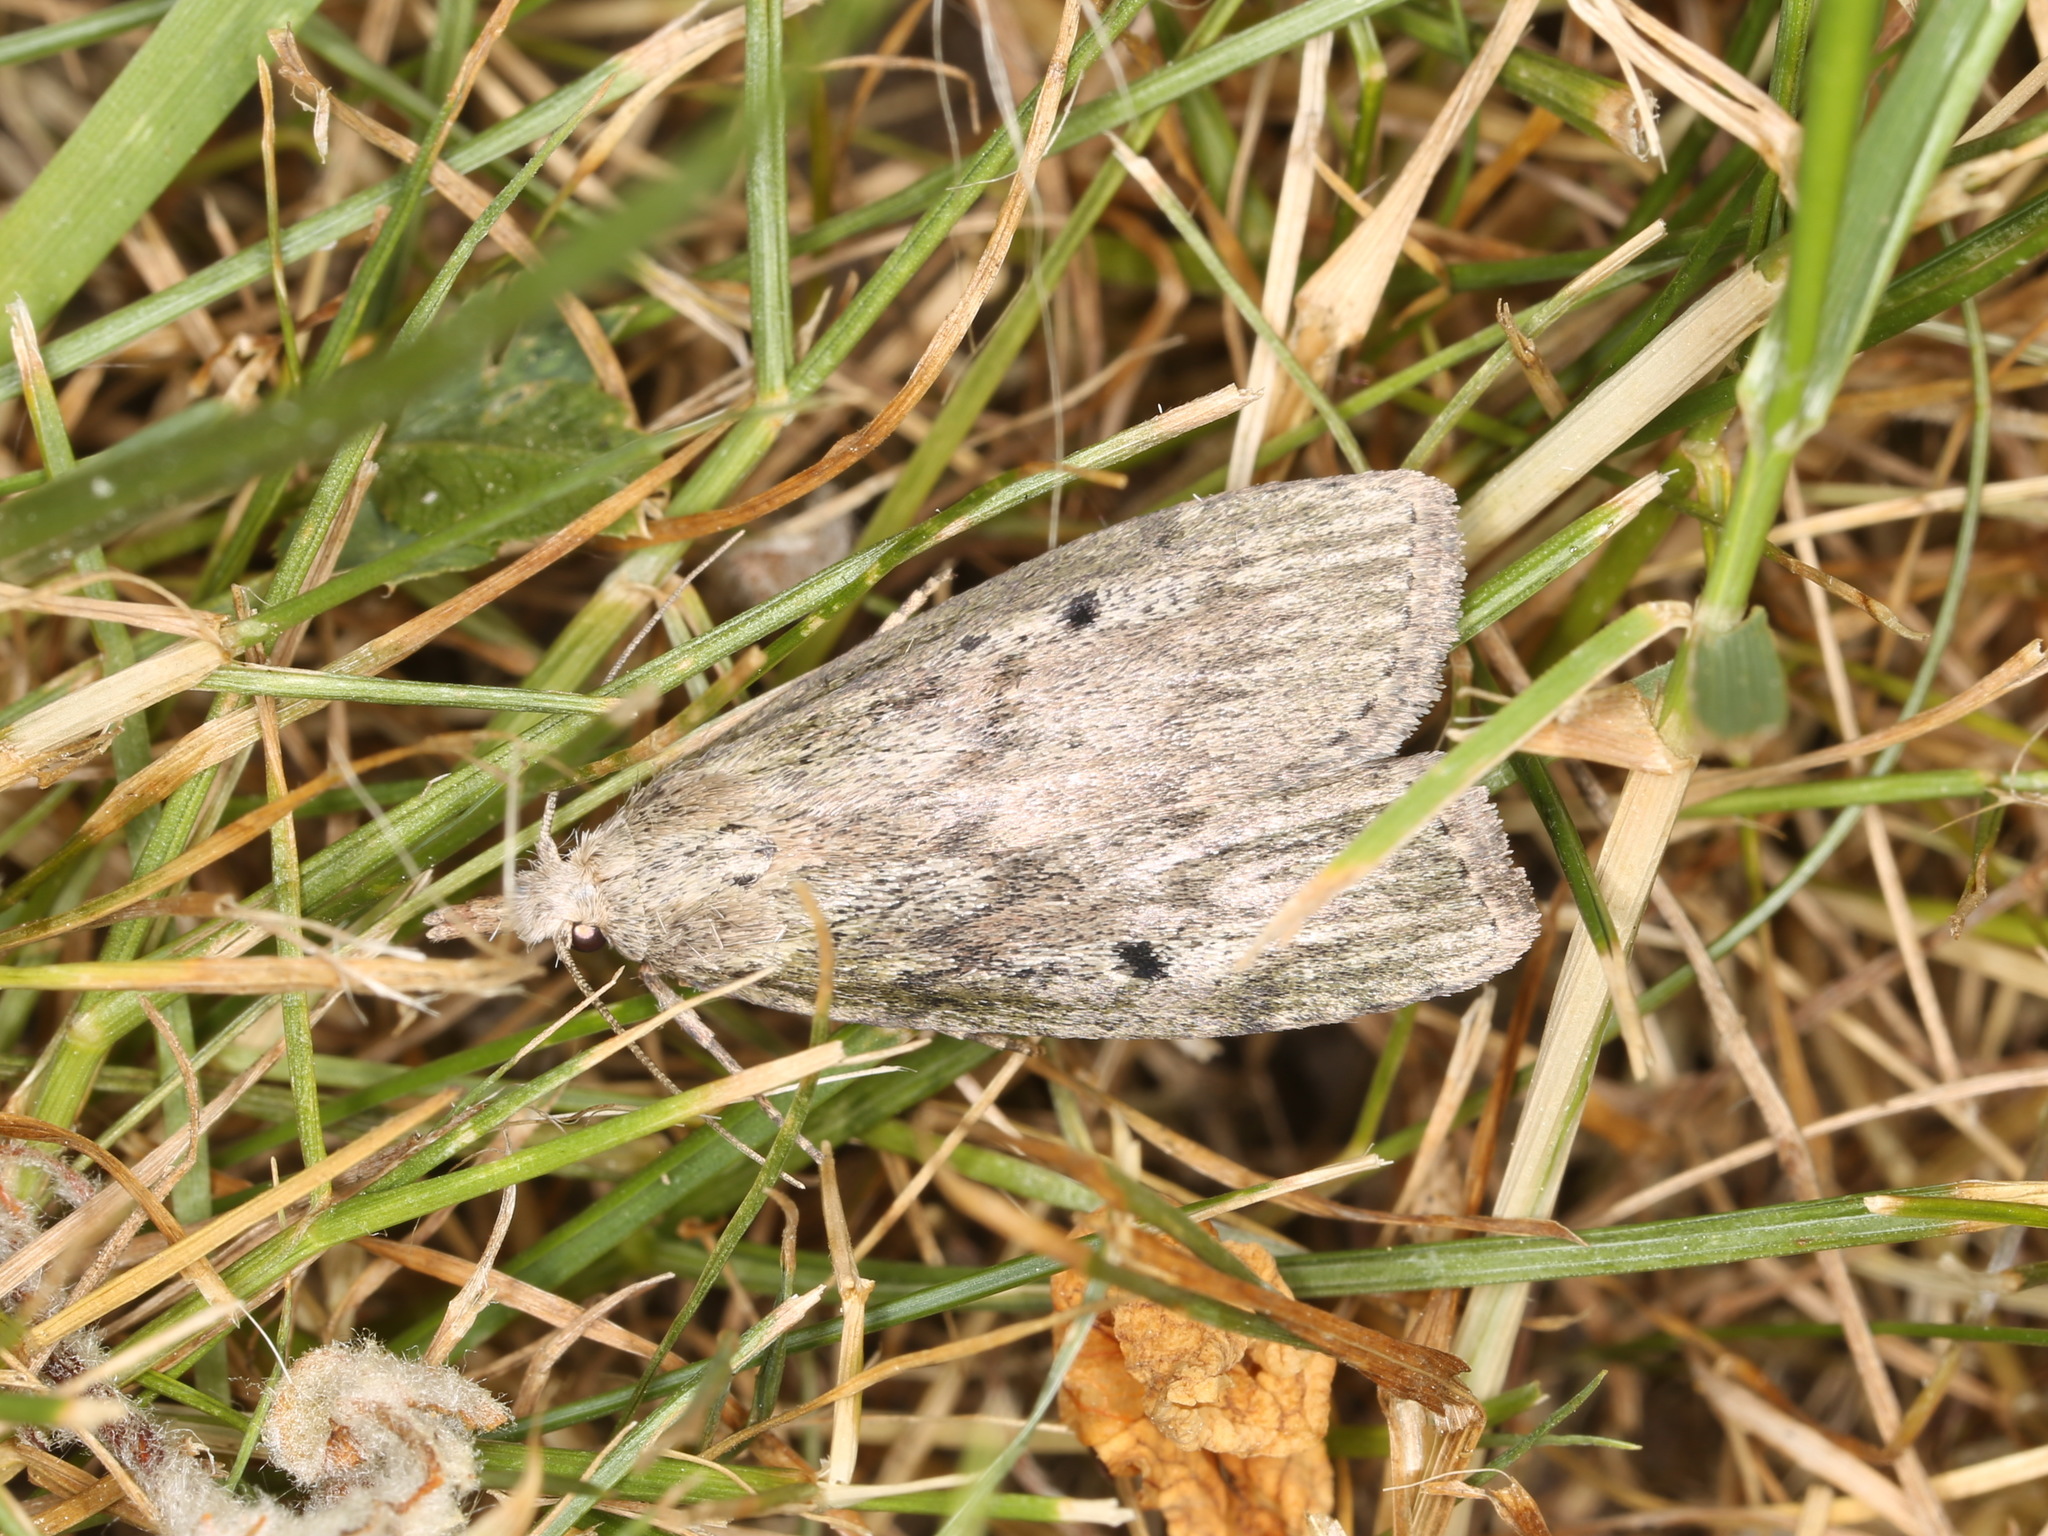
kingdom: Animalia
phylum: Arthropoda
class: Insecta
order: Lepidoptera
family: Pyralidae
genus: Aphomia
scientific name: Aphomia sociella
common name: Bee moth
